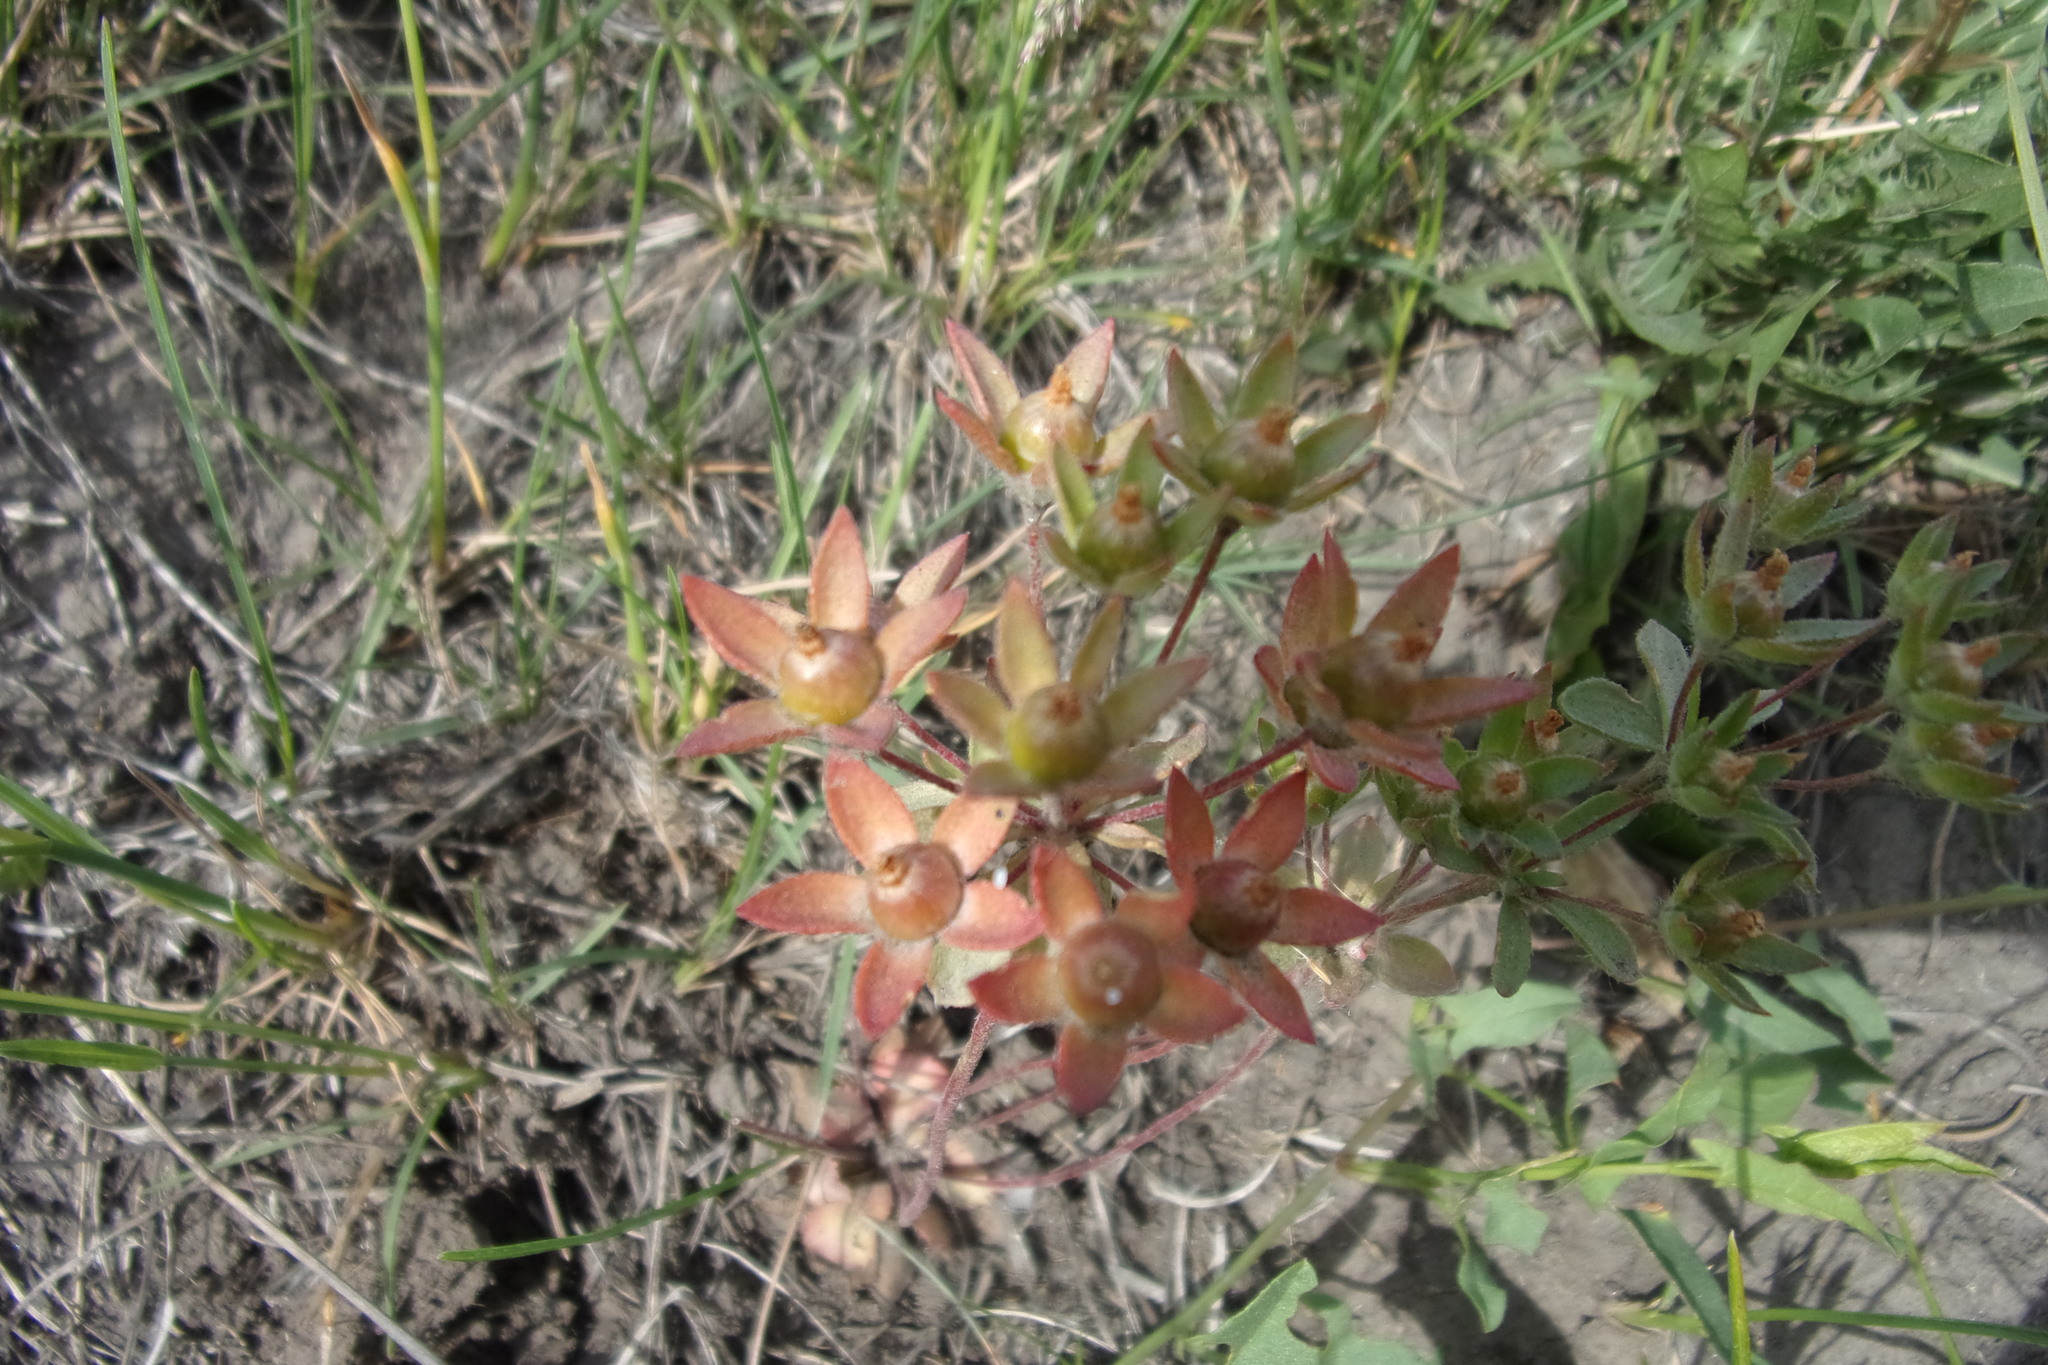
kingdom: Plantae
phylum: Tracheophyta
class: Magnoliopsida
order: Ericales
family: Primulaceae
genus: Androsace
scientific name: Androsace maxima
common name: Annual androsace
